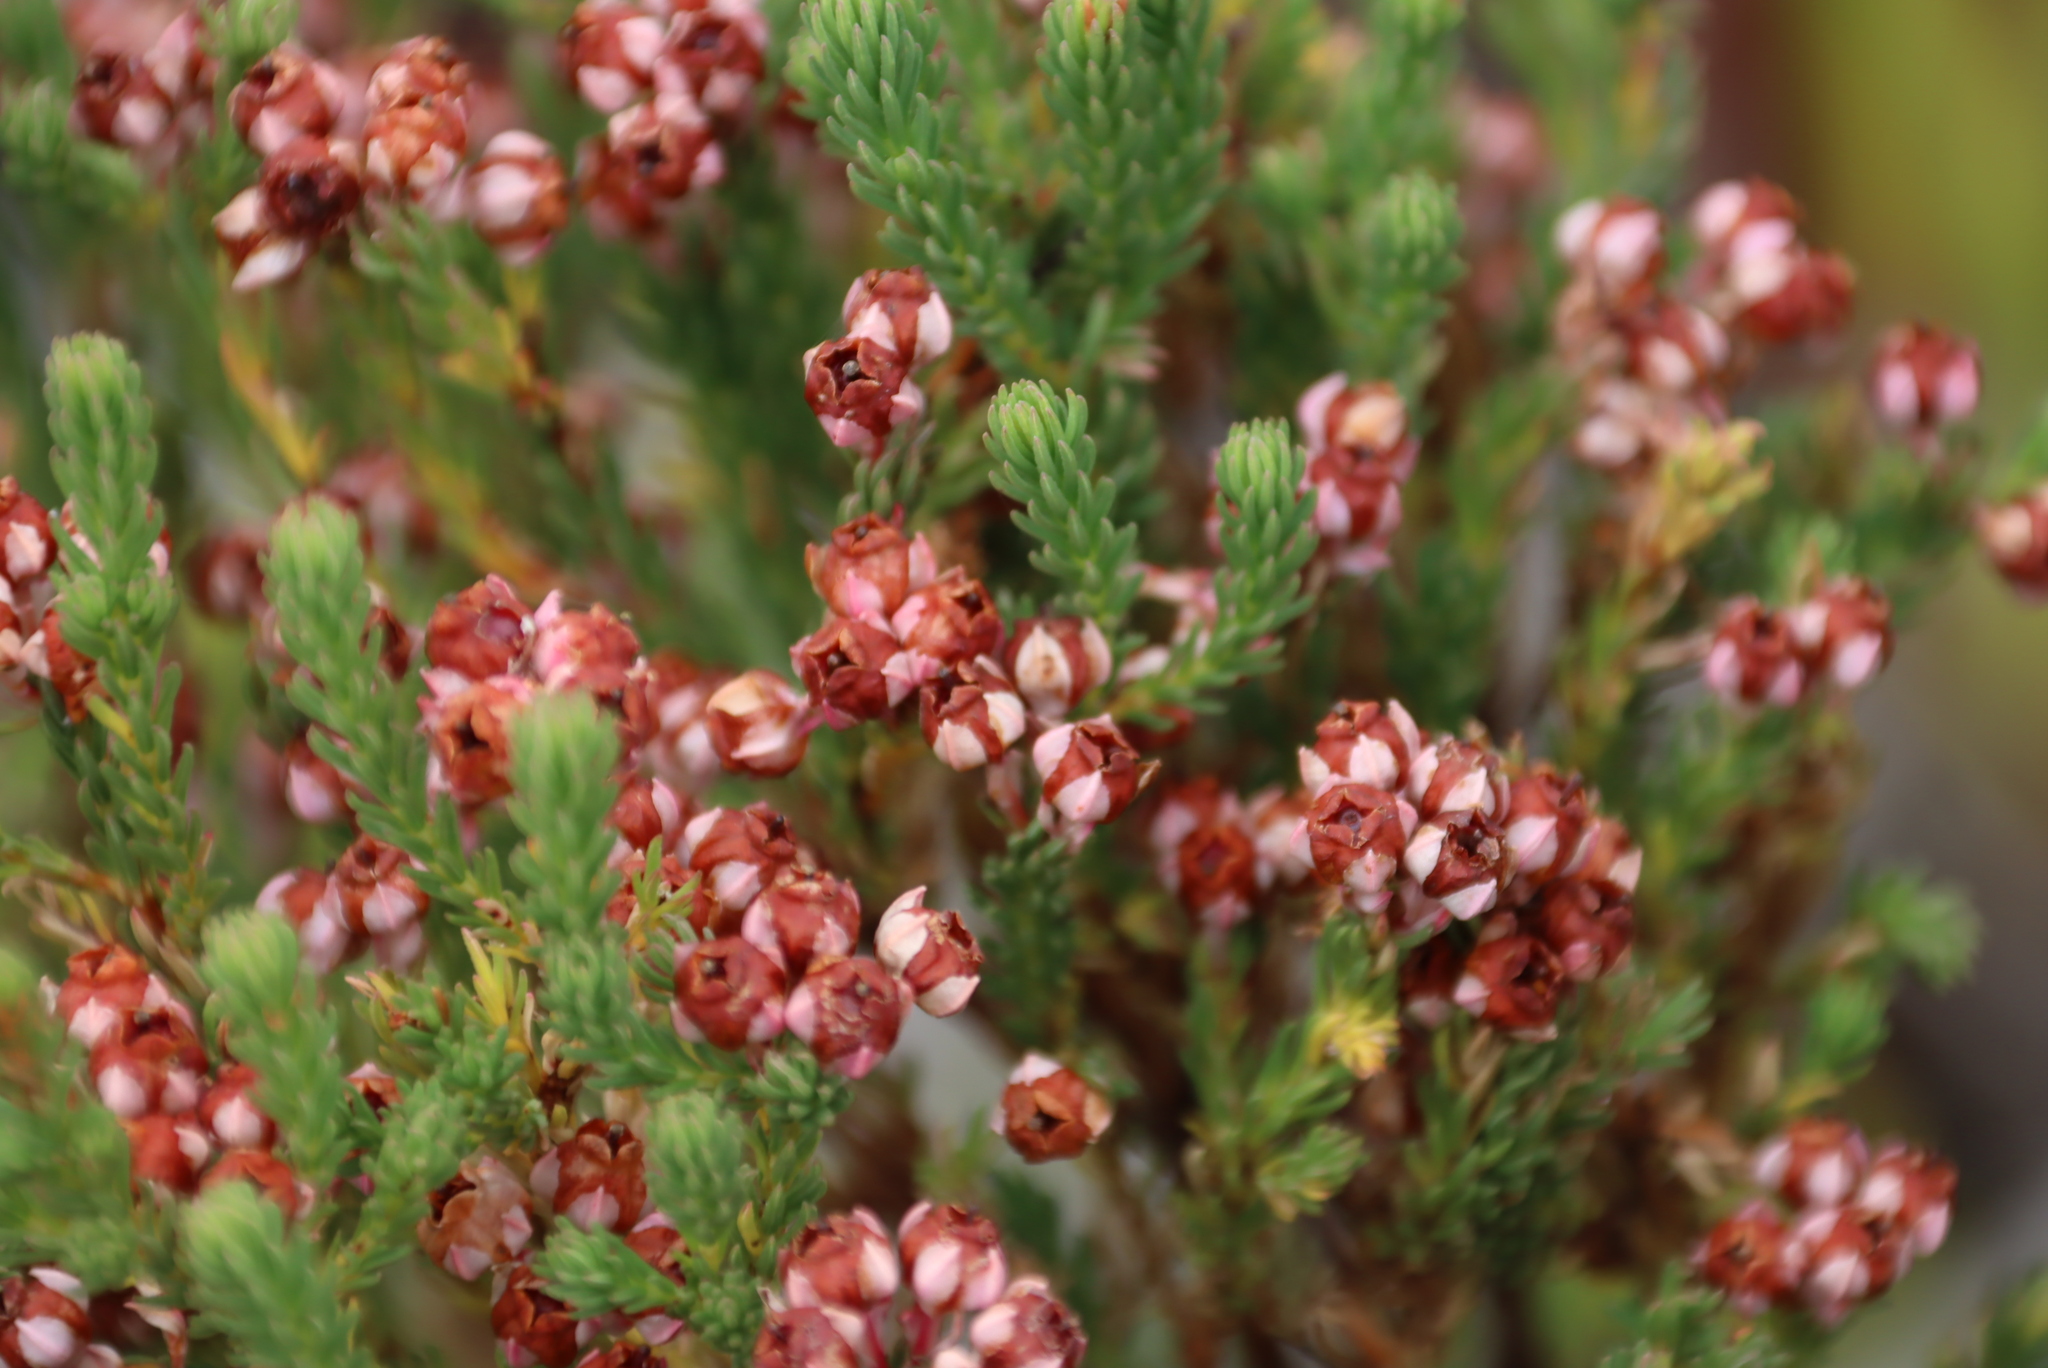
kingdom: Plantae
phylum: Tracheophyta
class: Magnoliopsida
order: Ericales
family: Ericaceae
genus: Erica
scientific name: Erica baccans
